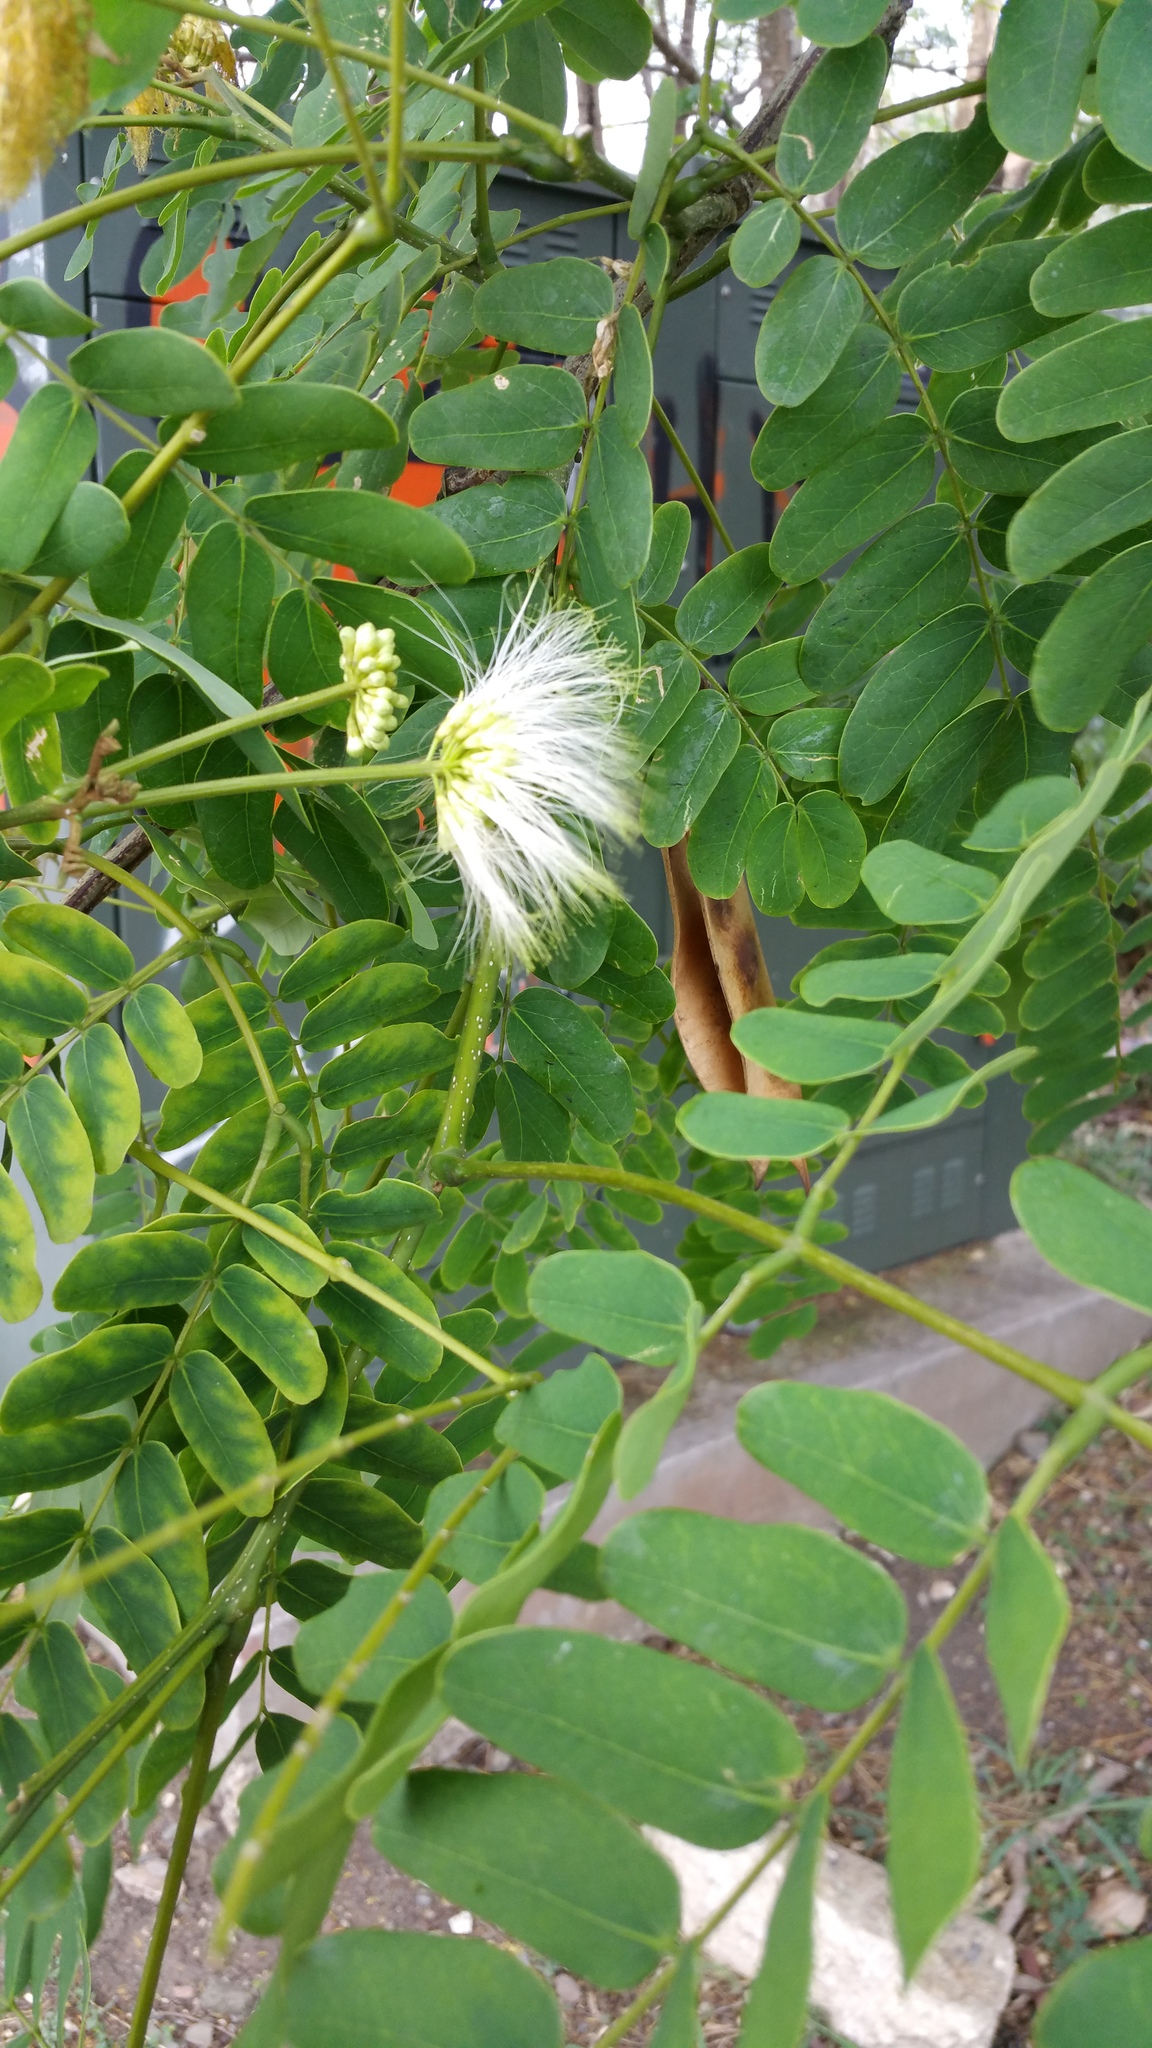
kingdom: Plantae
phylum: Tracheophyta
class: Magnoliopsida
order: Fabales
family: Fabaceae
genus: Albizia
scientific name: Albizia lebbeck
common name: Woman's tongue
